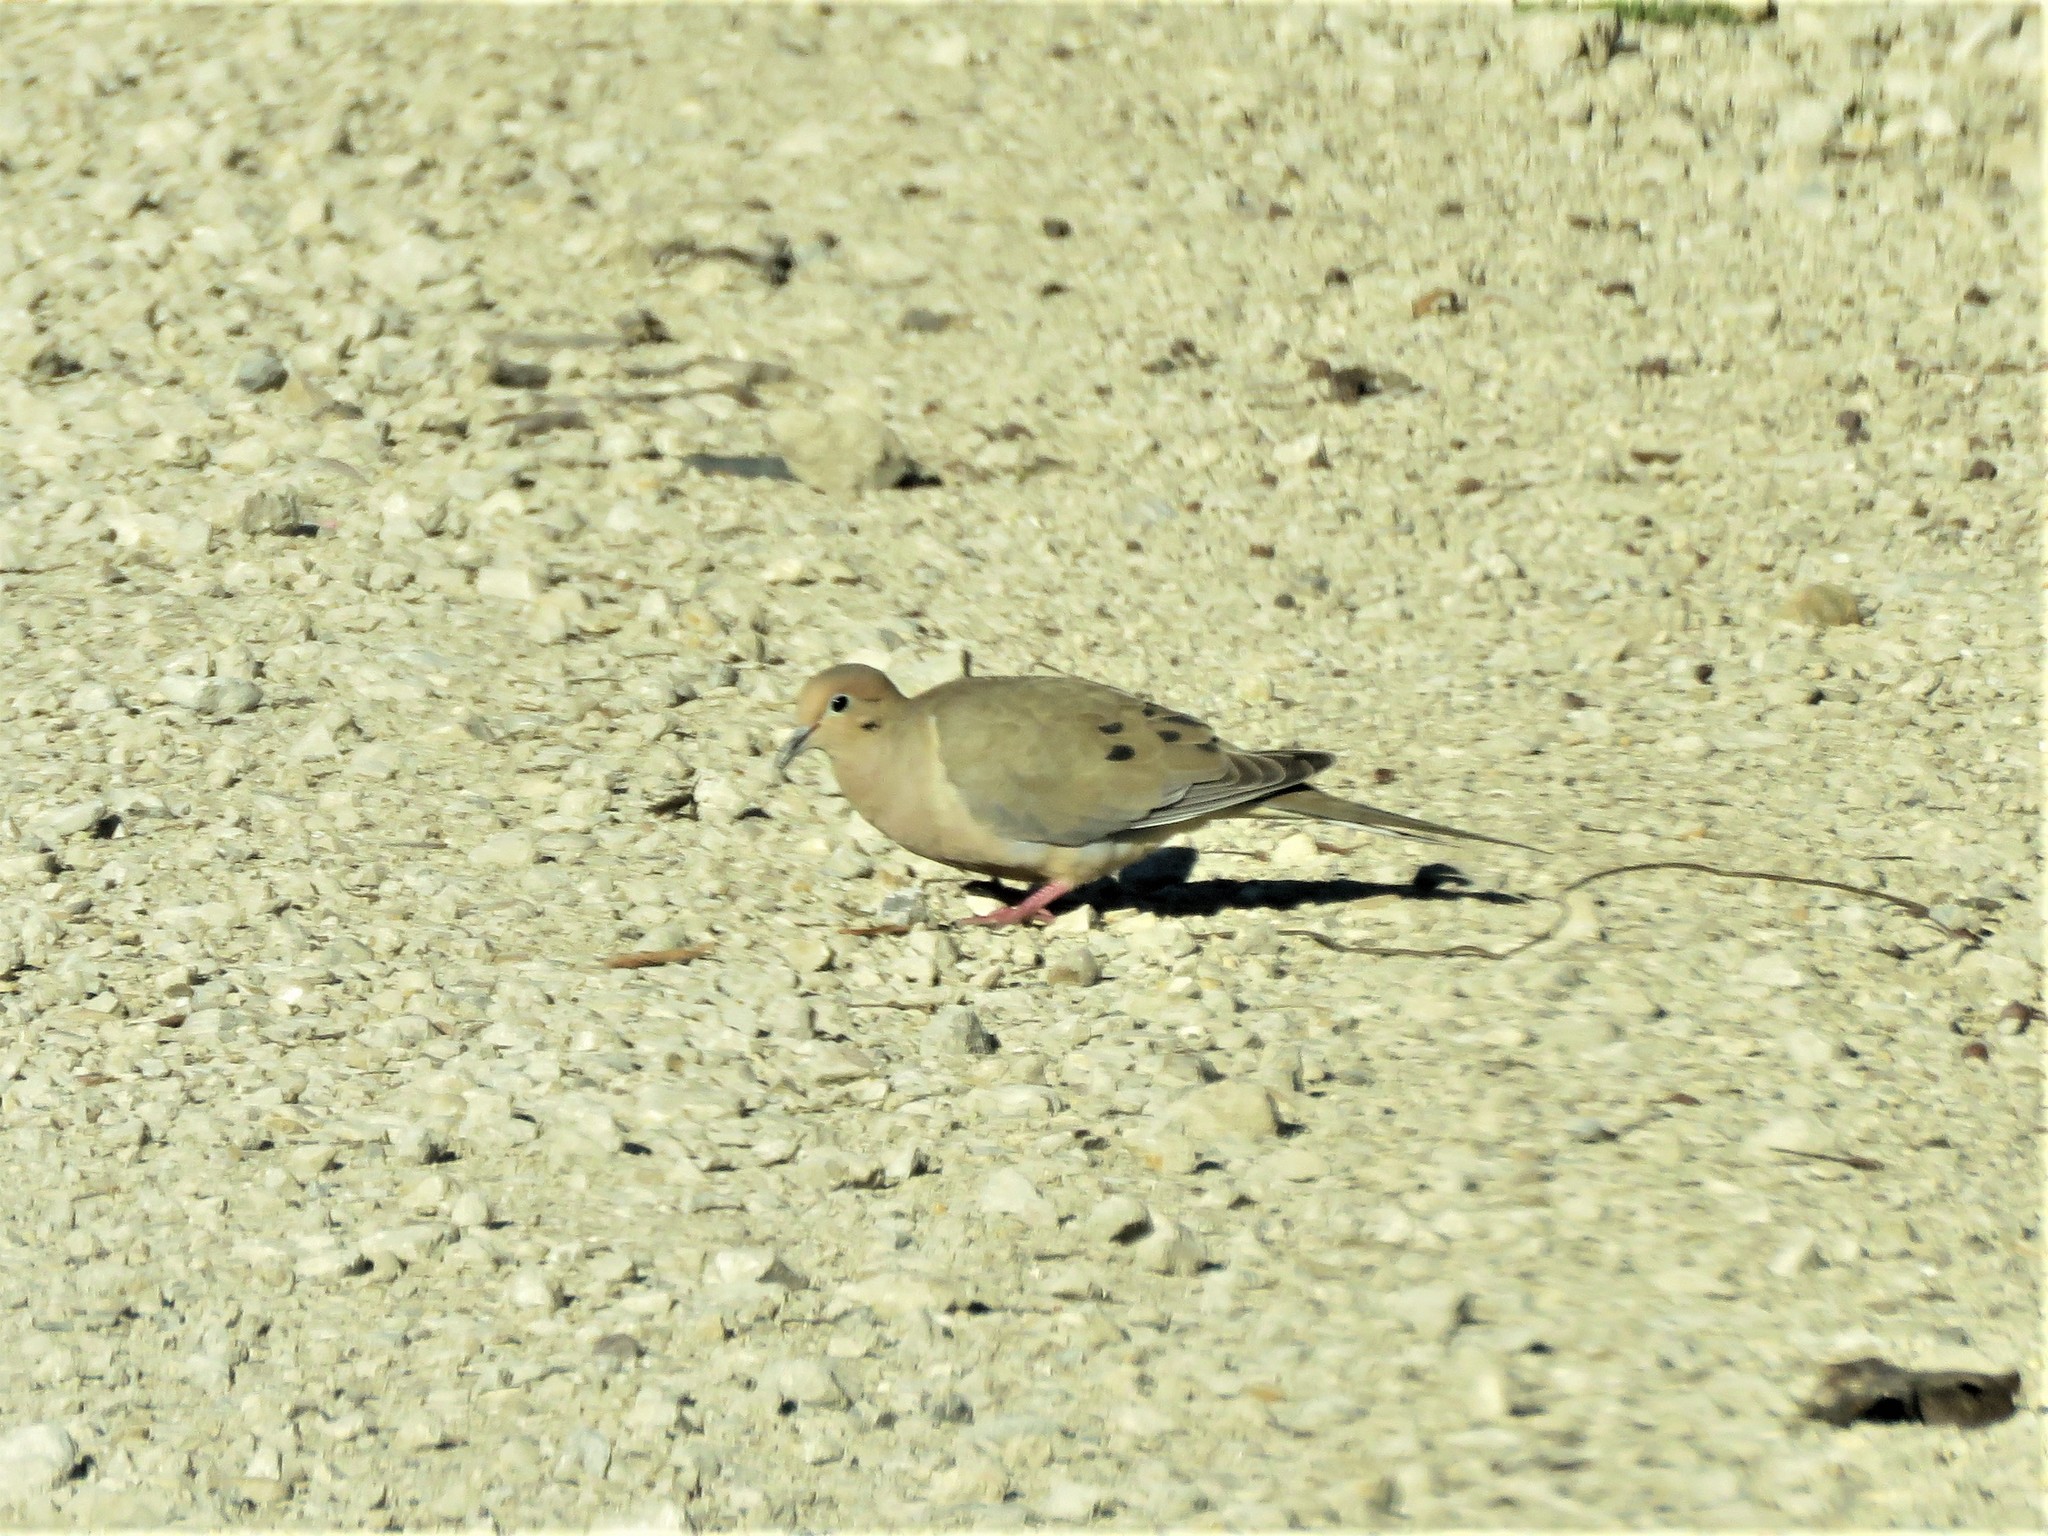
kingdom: Animalia
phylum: Chordata
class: Aves
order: Columbiformes
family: Columbidae
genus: Zenaida
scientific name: Zenaida macroura
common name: Mourning dove
